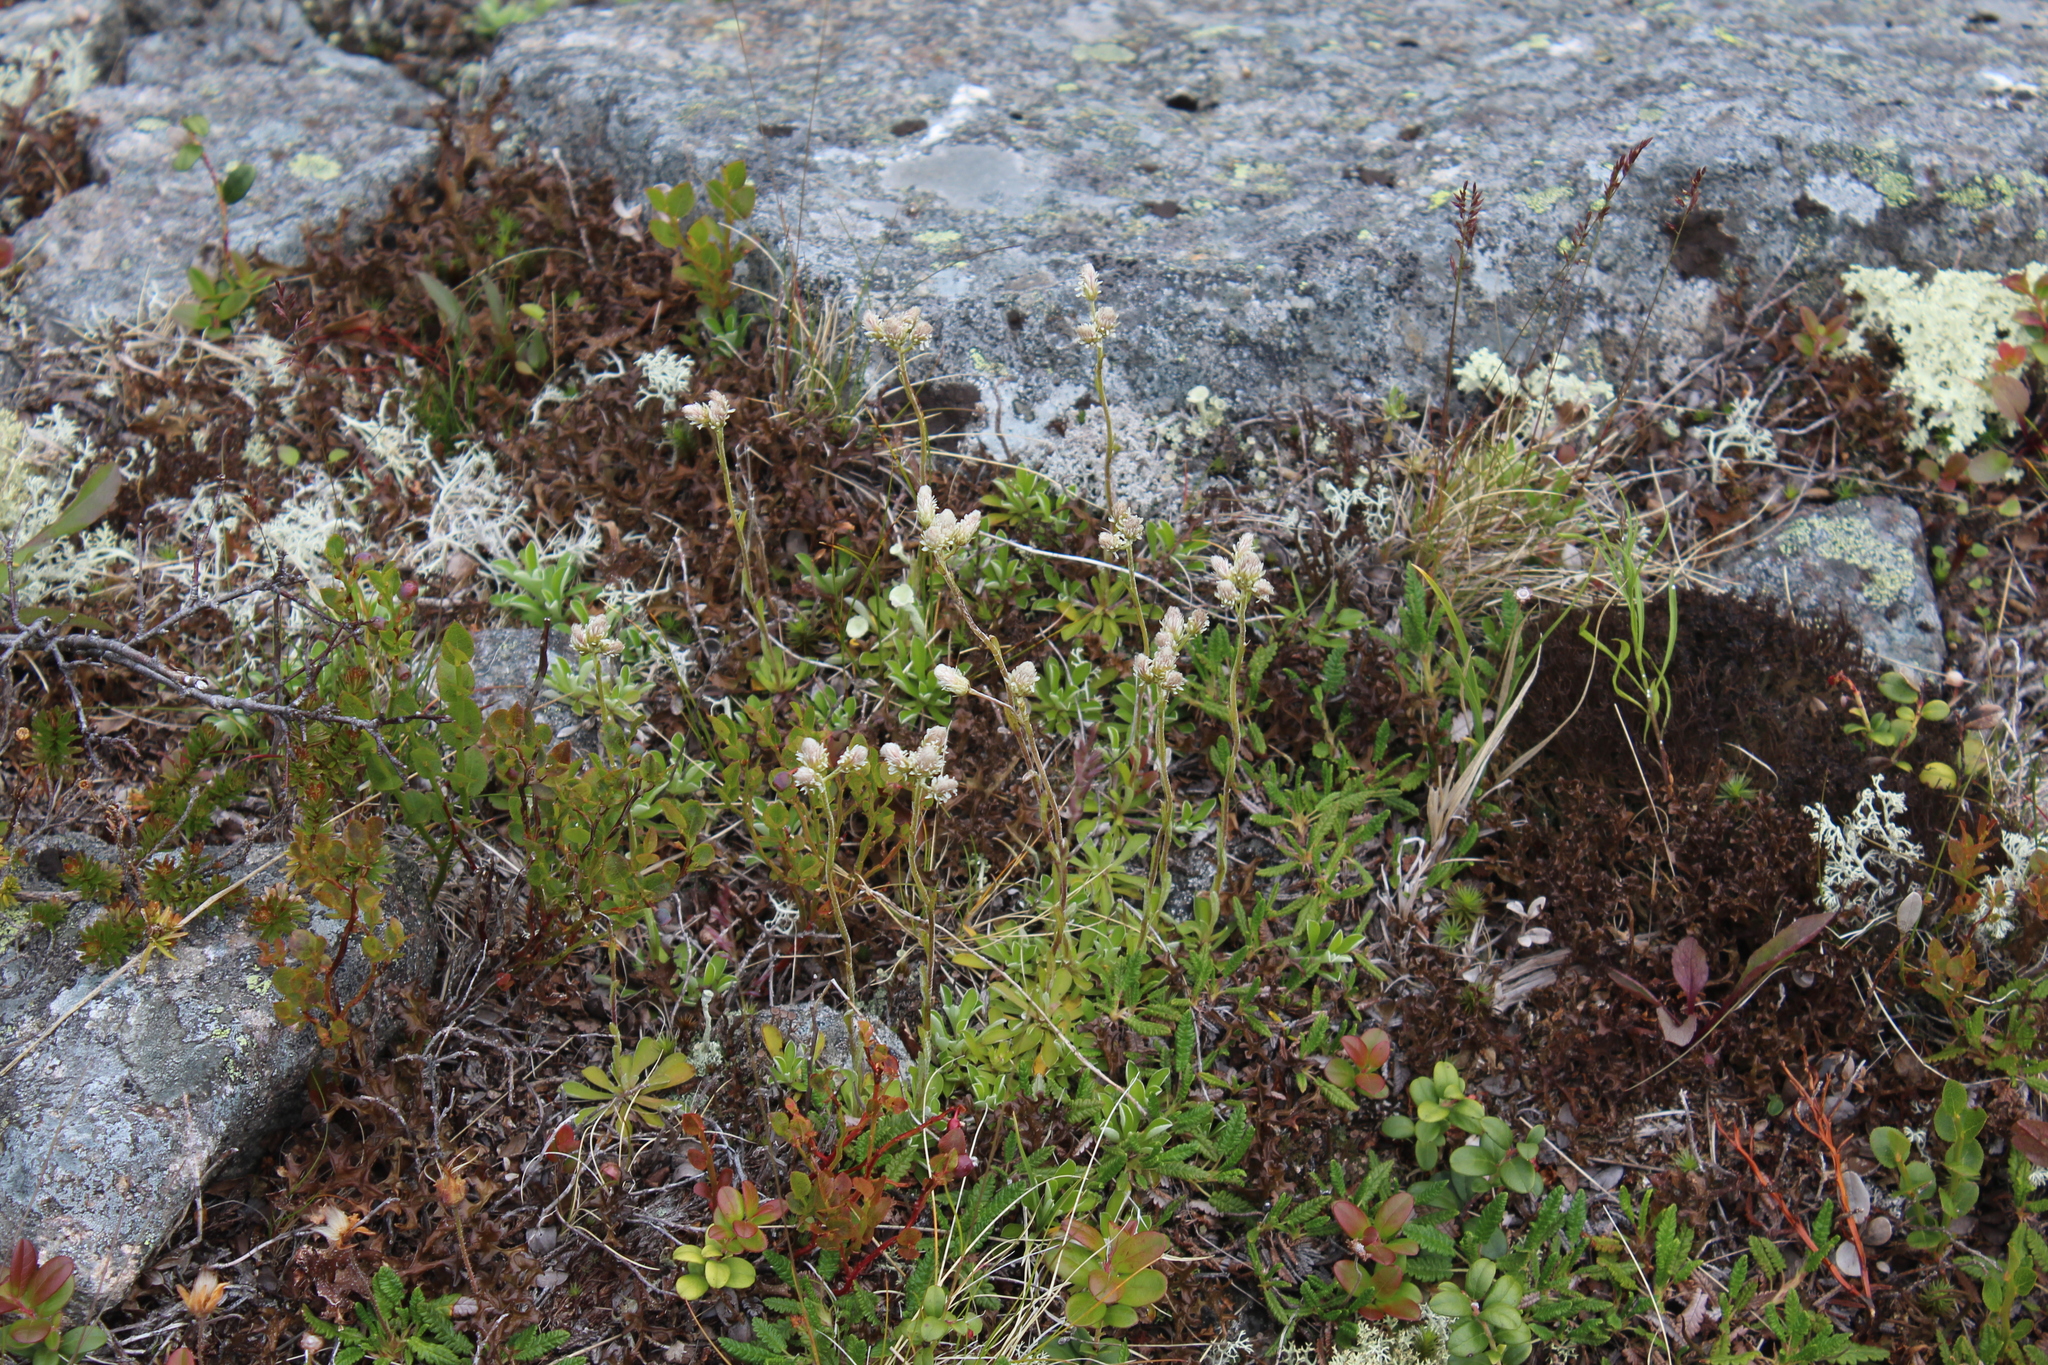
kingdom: Plantae
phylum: Tracheophyta
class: Magnoliopsida
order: Asterales
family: Asteraceae
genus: Antennaria
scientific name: Antennaria dioica
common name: Mountain everlasting
